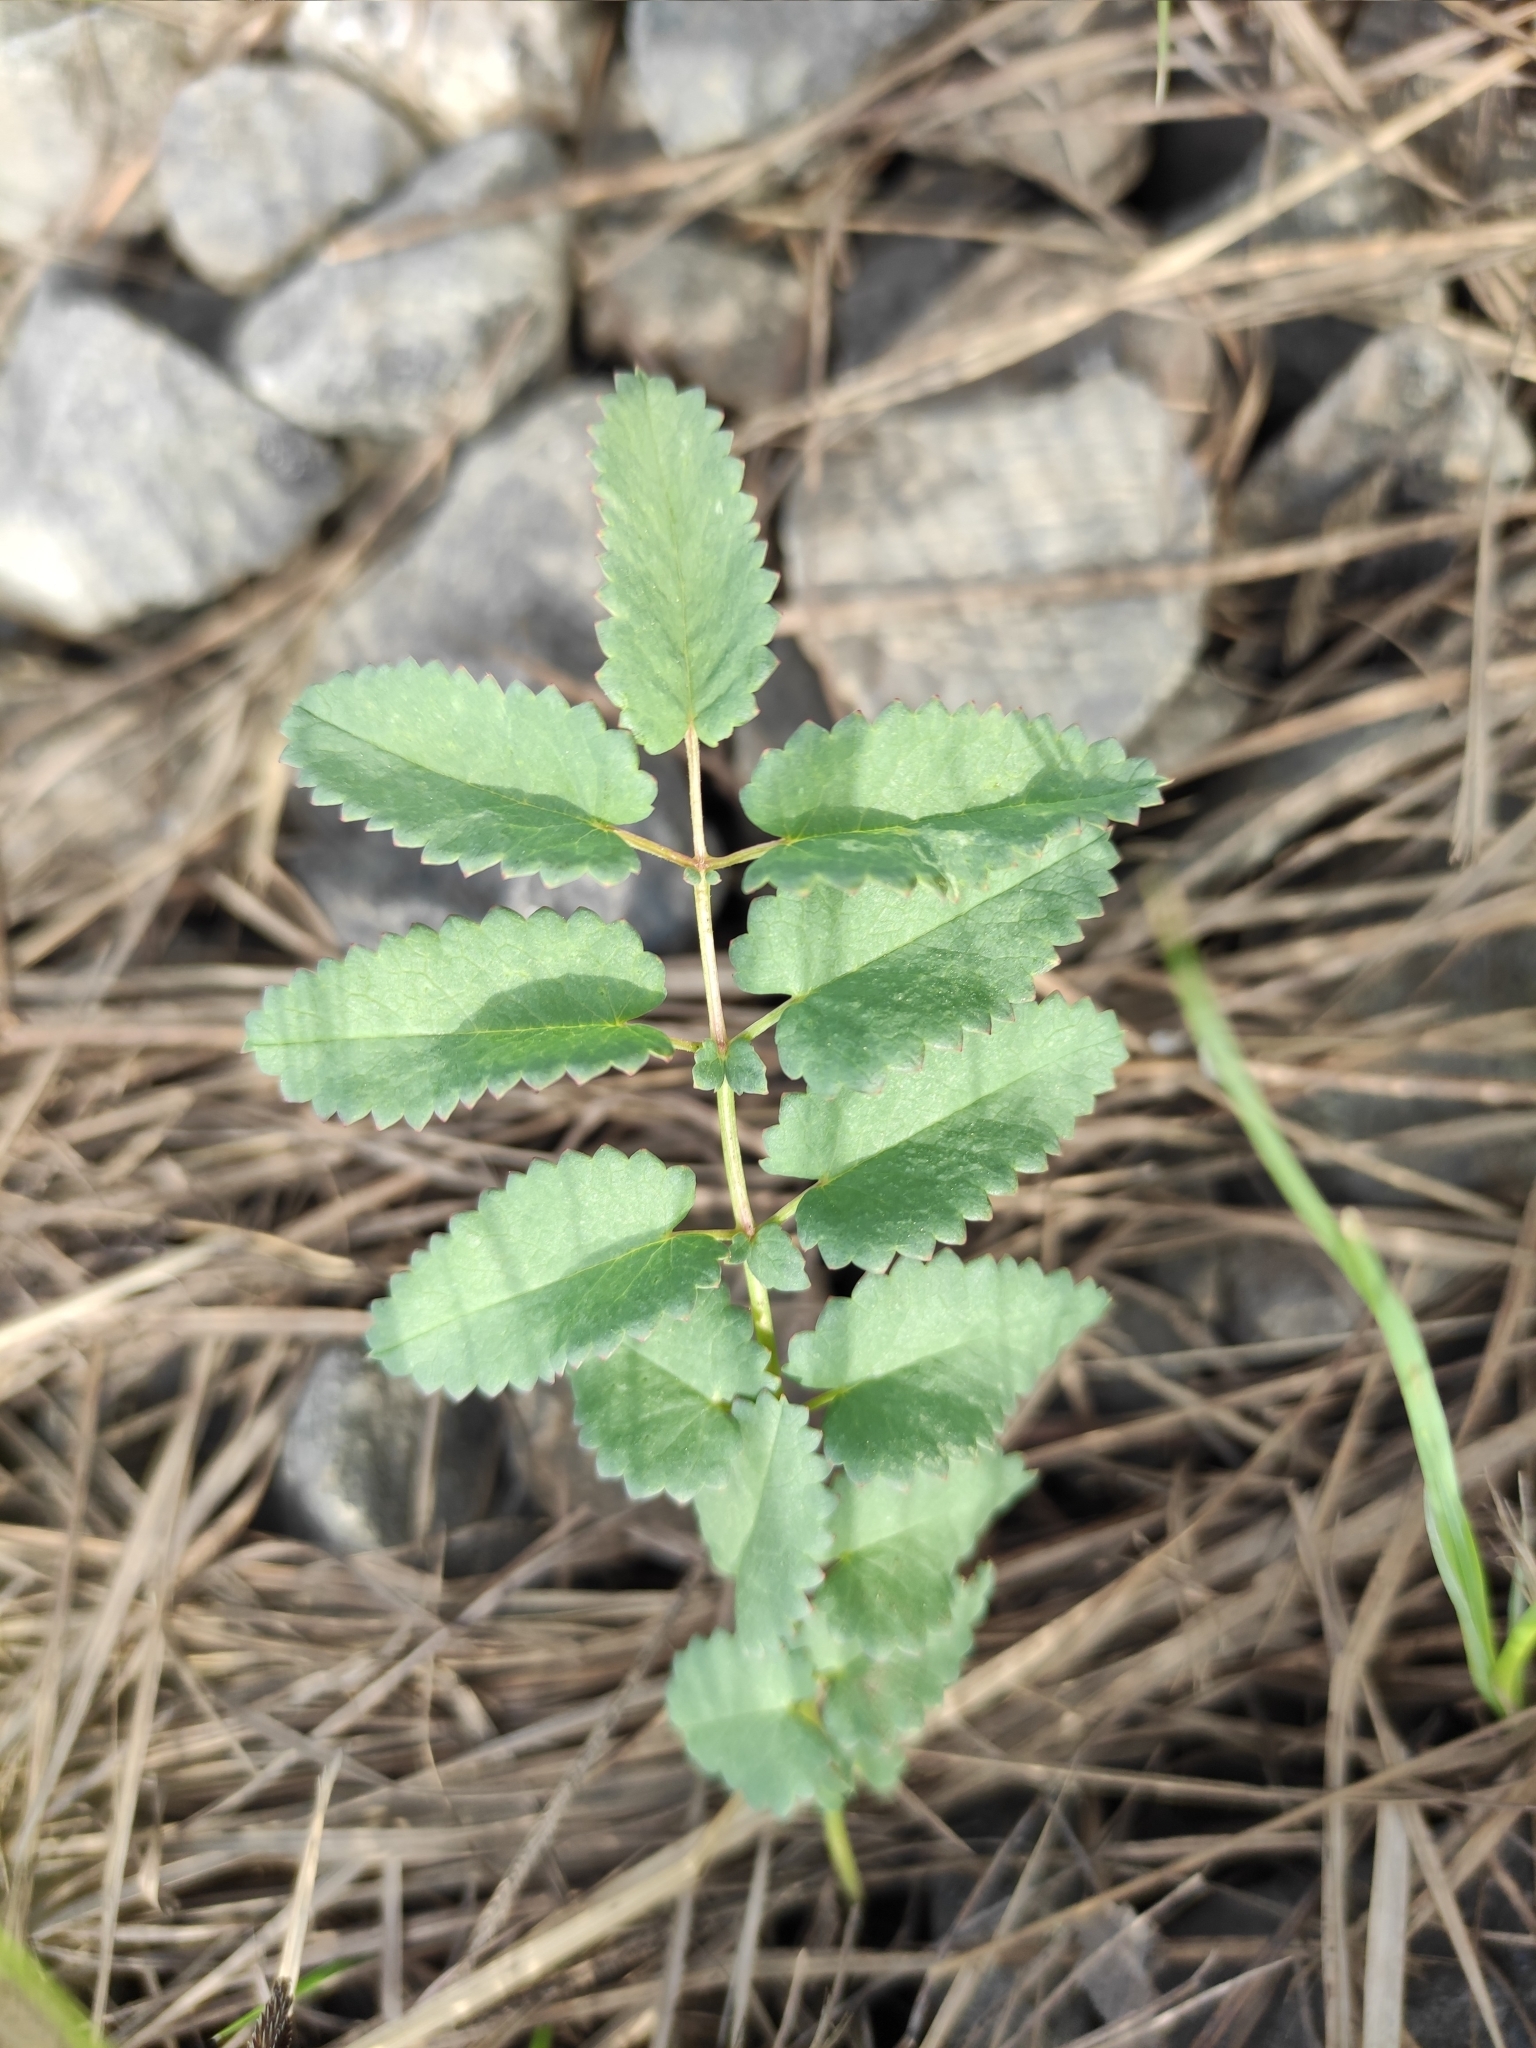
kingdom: Plantae
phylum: Tracheophyta
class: Magnoliopsida
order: Rosales
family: Rosaceae
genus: Sanguisorba
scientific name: Sanguisorba officinalis
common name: Great burnet
